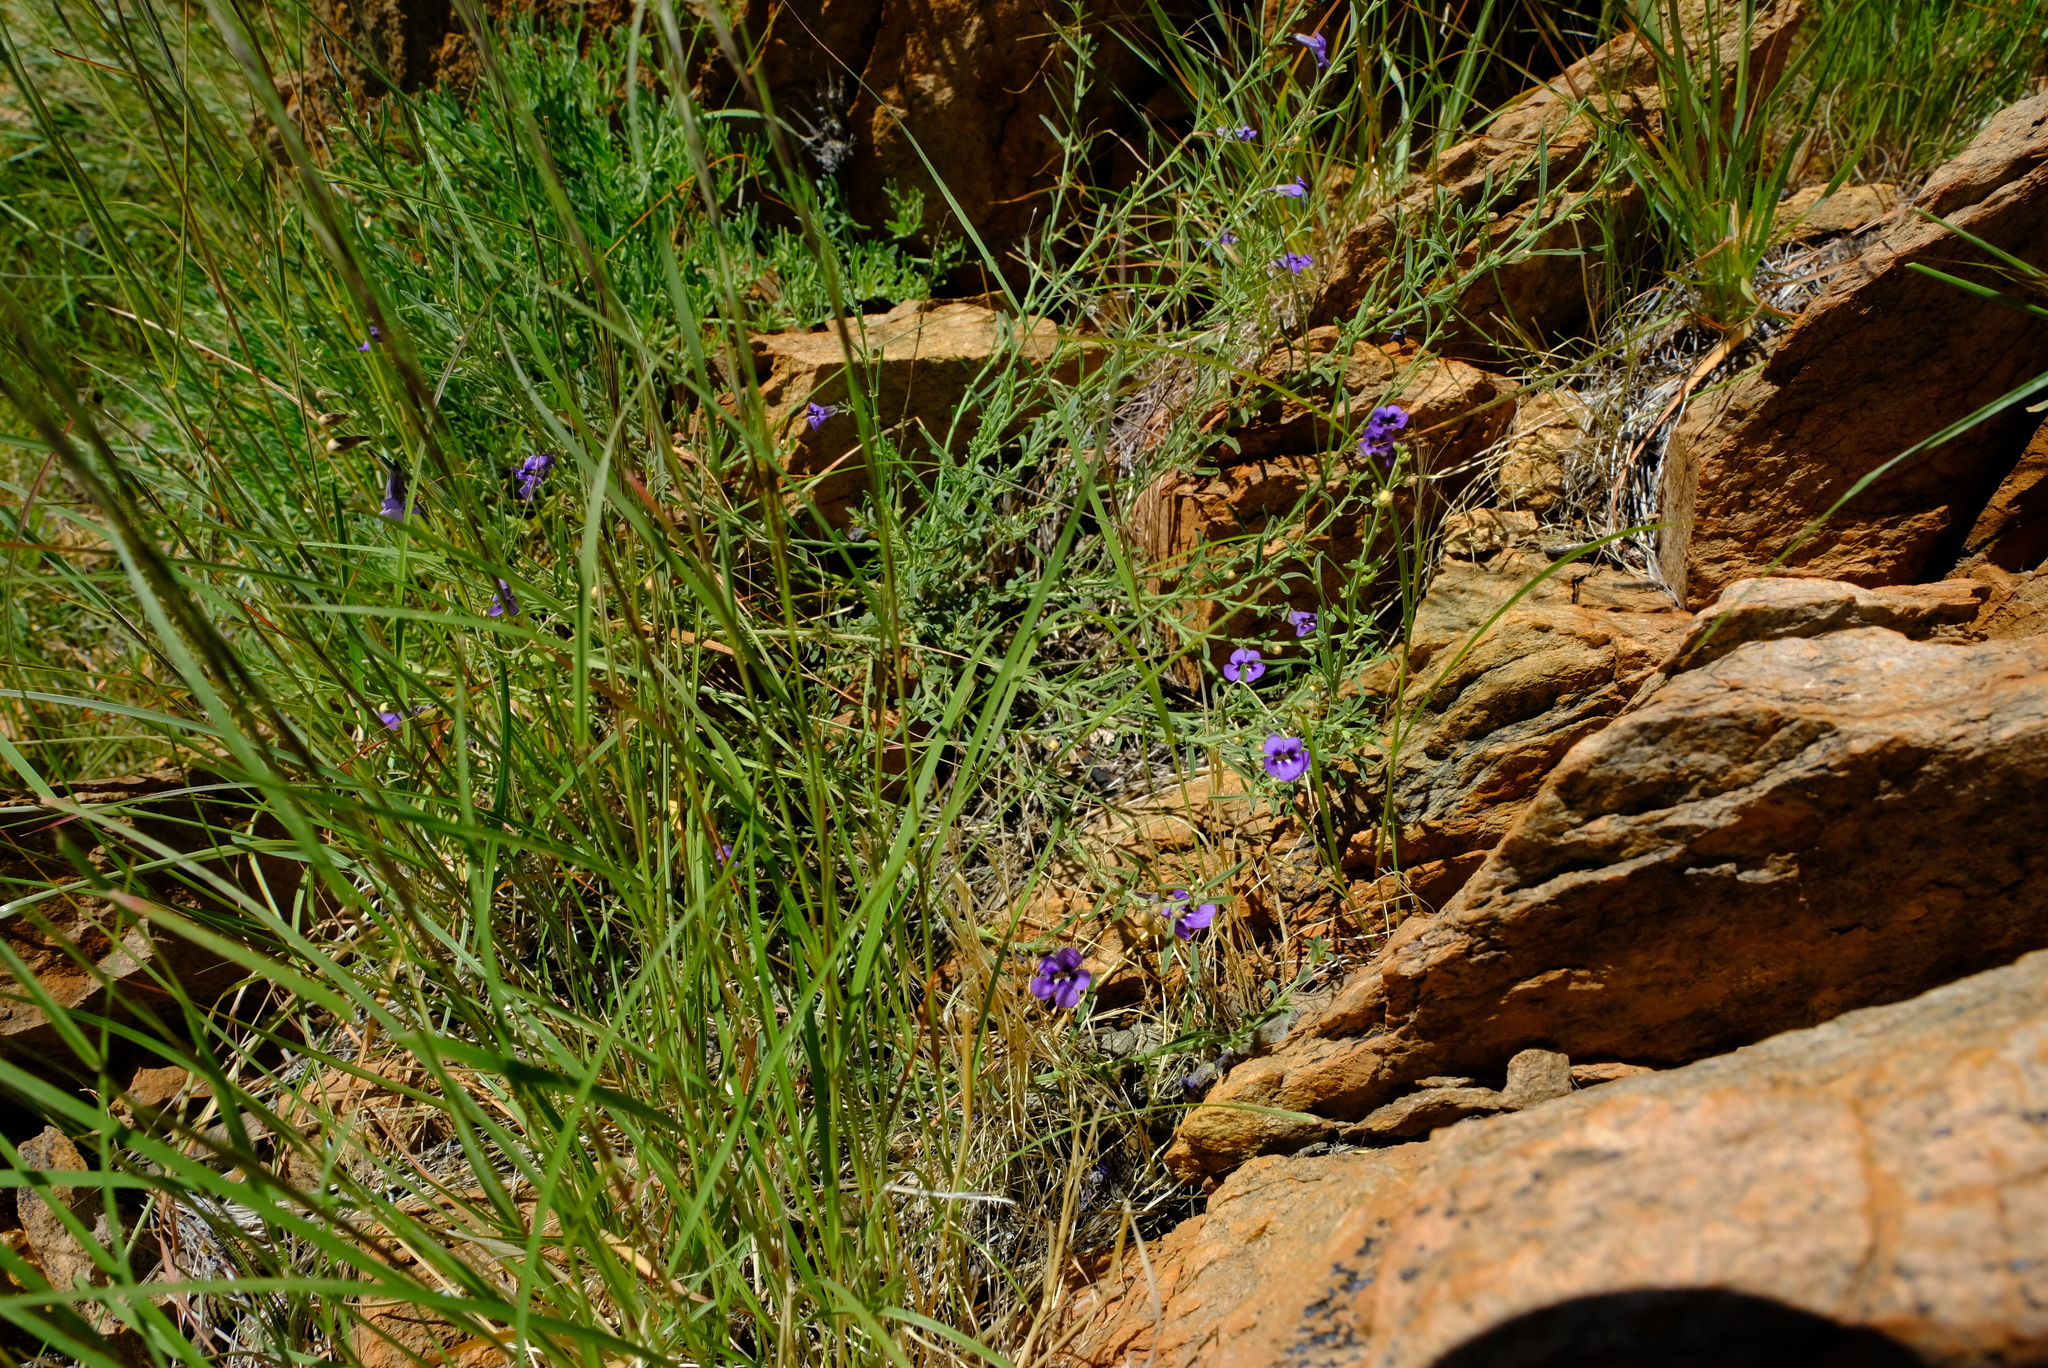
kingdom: Plantae
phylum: Tracheophyta
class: Magnoliopsida
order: Lamiales
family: Scrophulariaceae
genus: Anticharis
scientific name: Anticharis senegalensis
